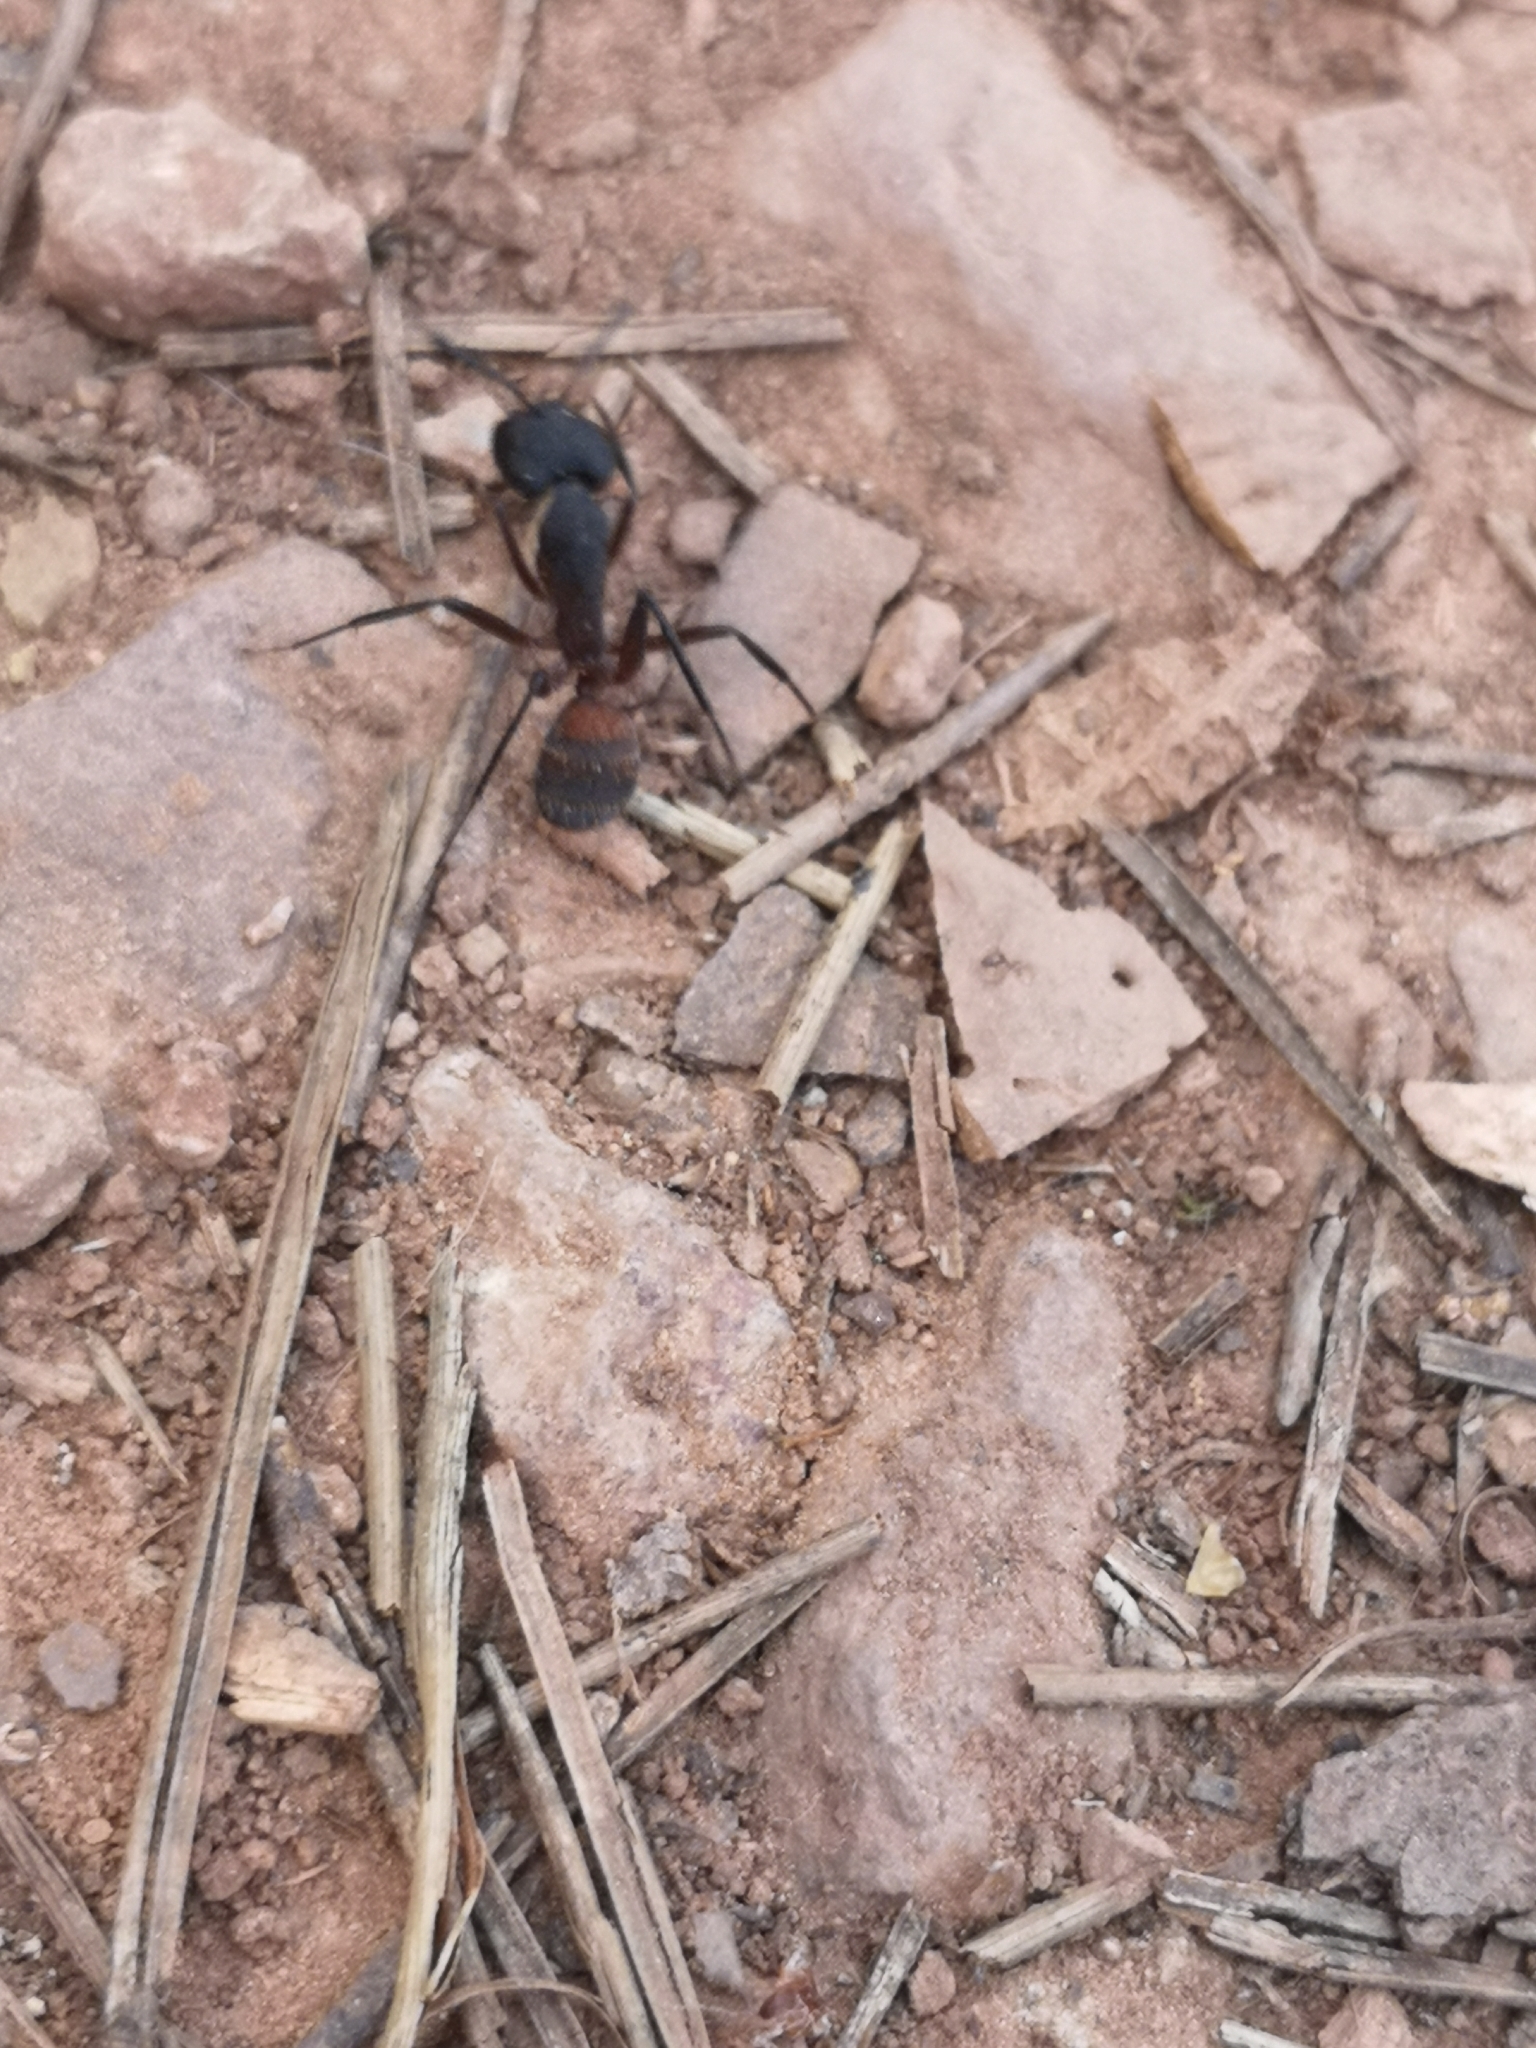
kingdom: Animalia
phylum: Arthropoda
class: Insecta
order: Hymenoptera
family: Formicidae
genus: Camponotus
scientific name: Camponotus cruentatus
